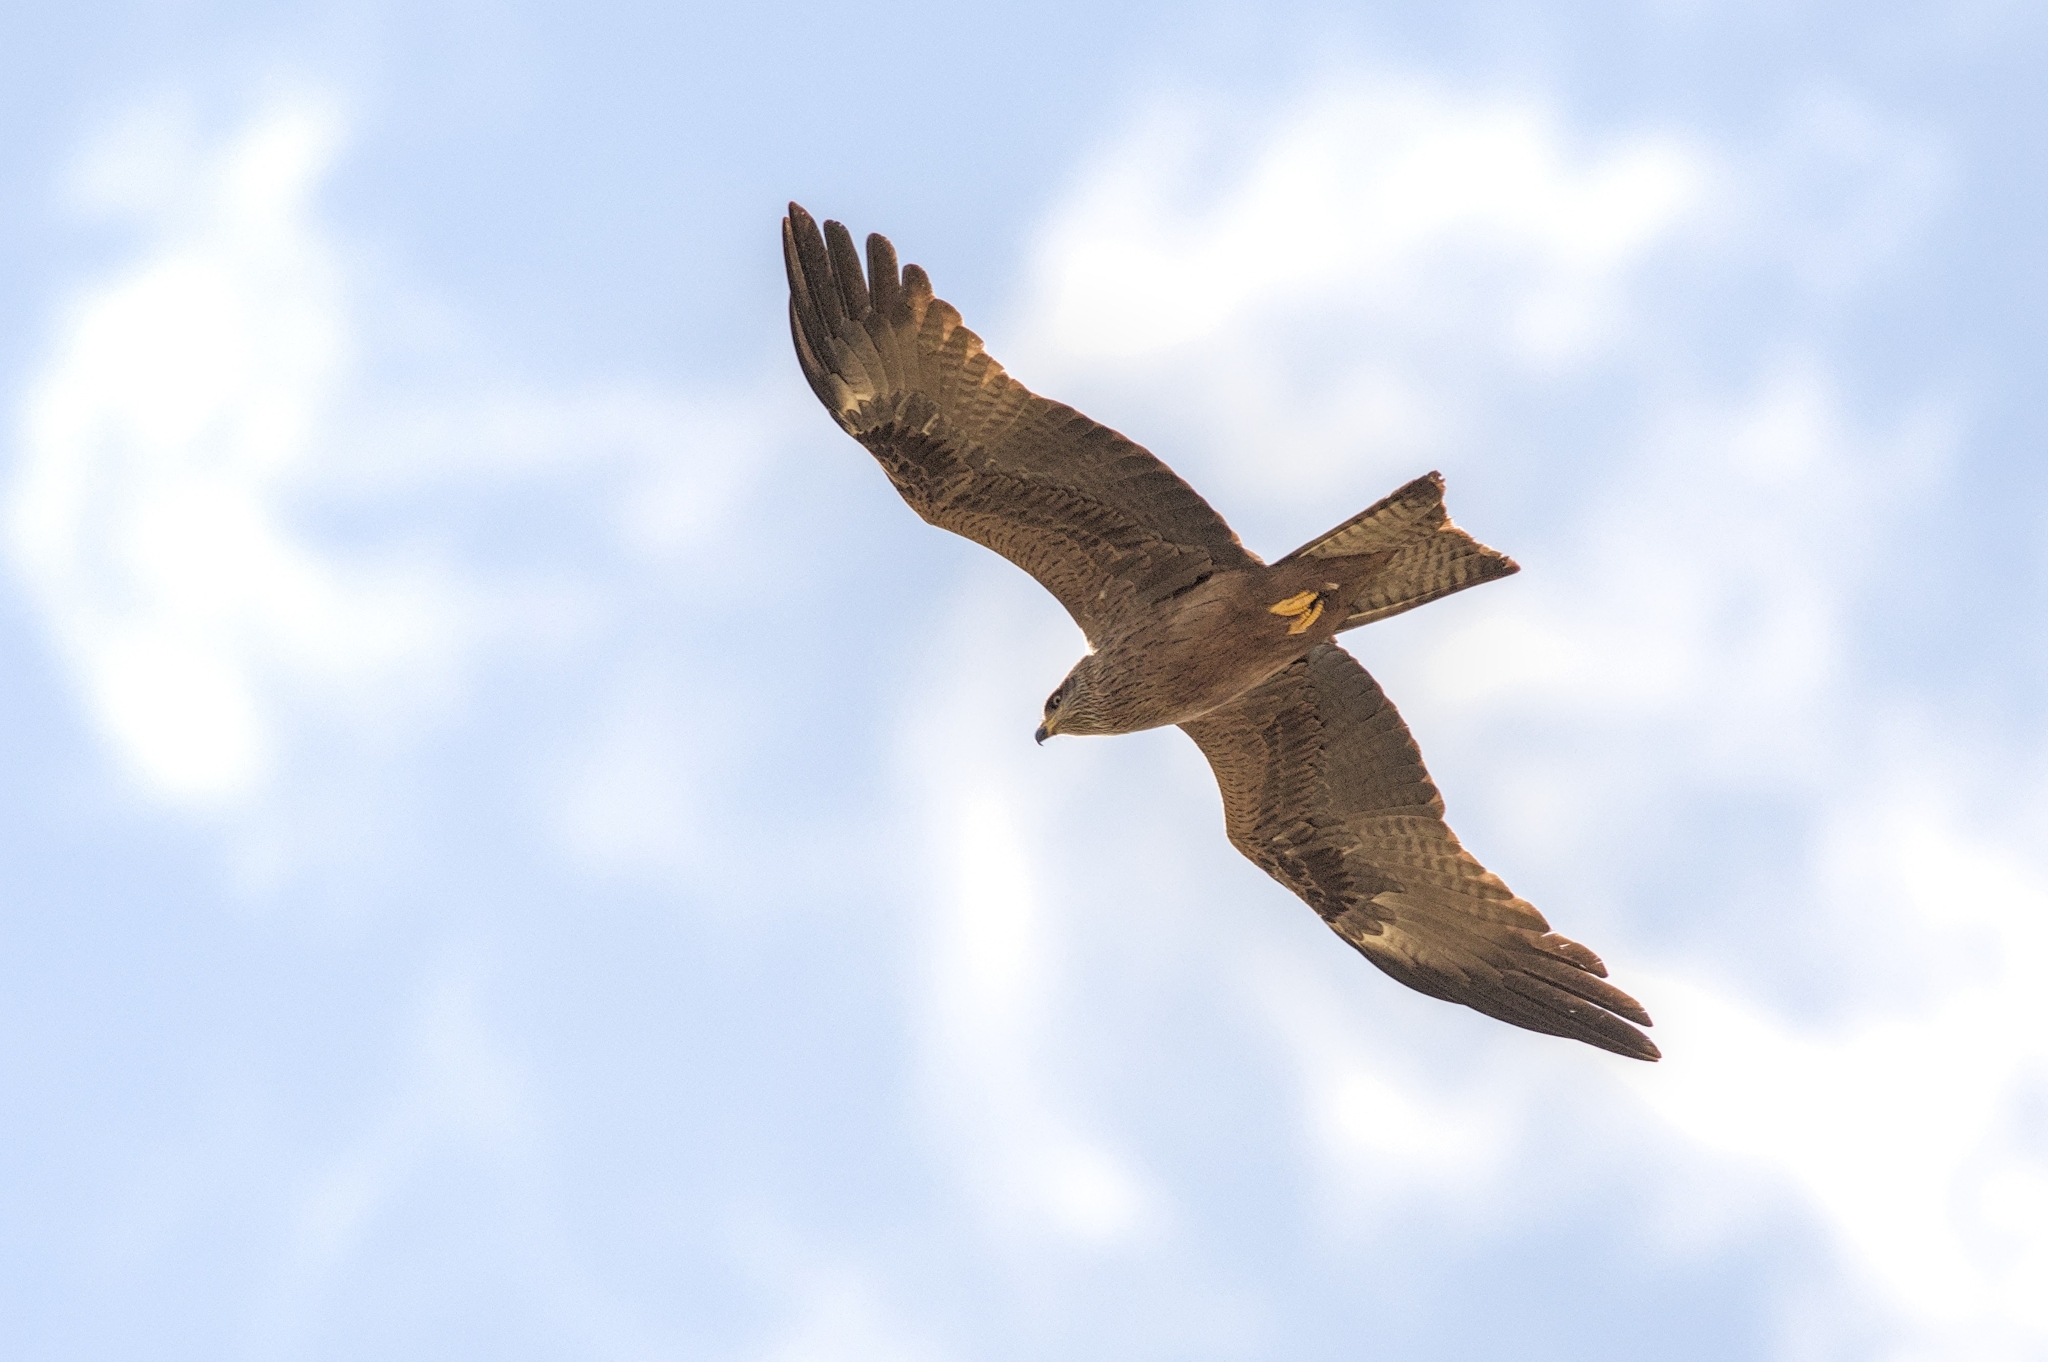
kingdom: Animalia
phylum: Chordata
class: Aves
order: Accipitriformes
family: Accipitridae
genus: Milvus
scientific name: Milvus migrans
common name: Black kite
